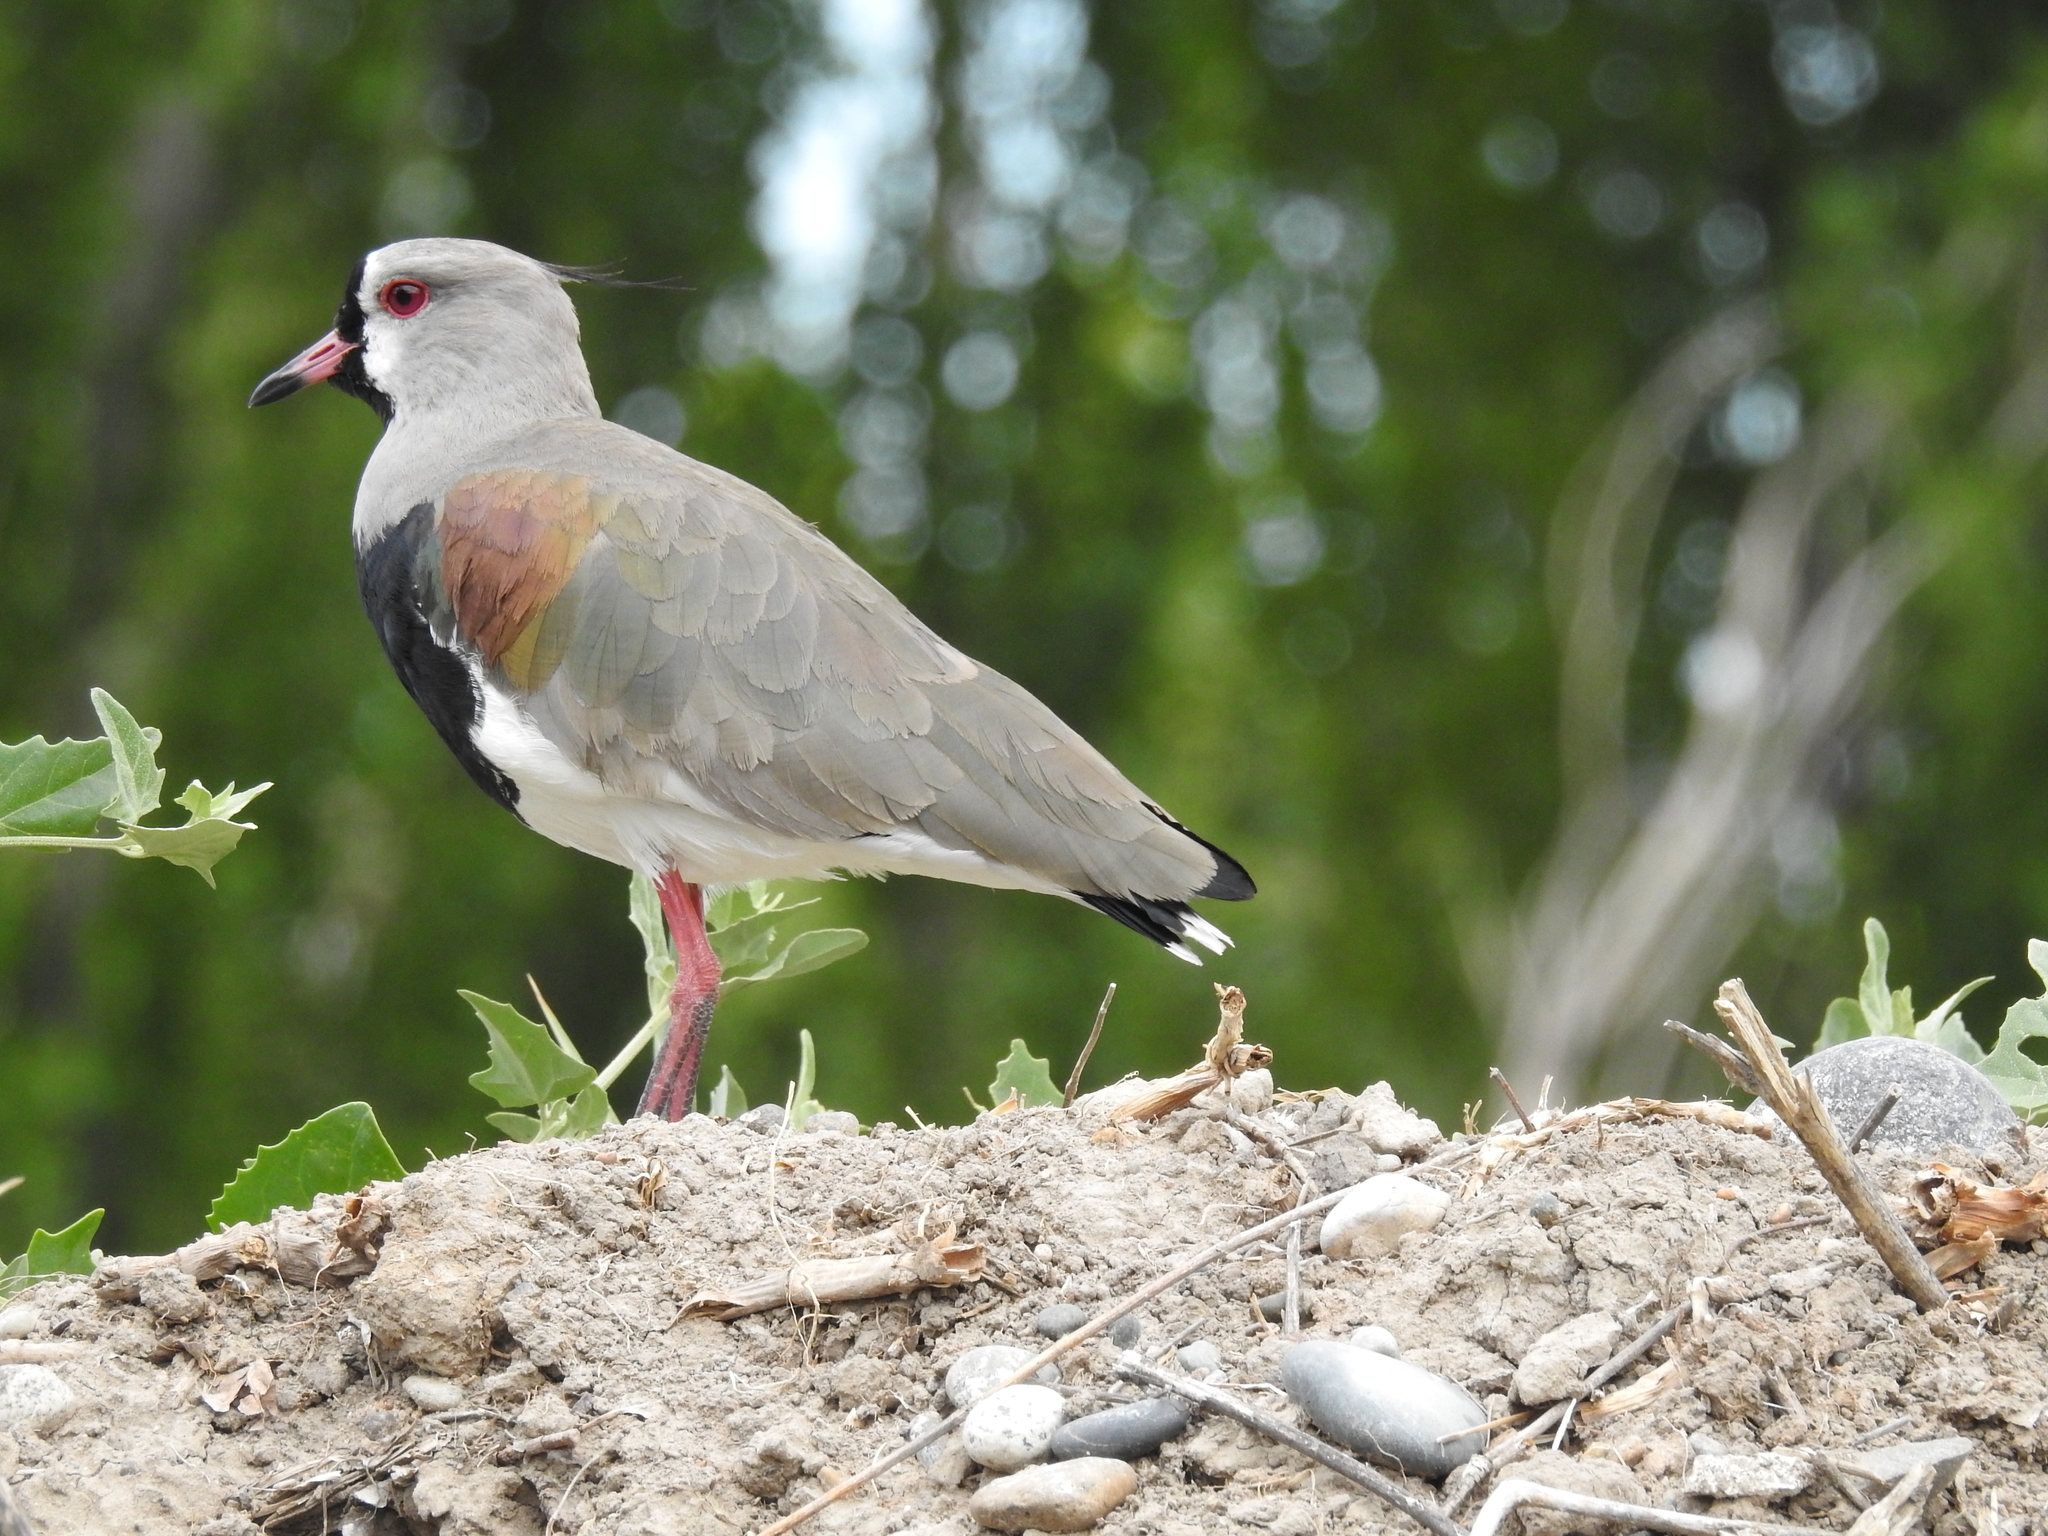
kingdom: Animalia
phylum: Chordata
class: Aves
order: Charadriiformes
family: Charadriidae
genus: Vanellus
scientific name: Vanellus chilensis
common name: Southern lapwing
